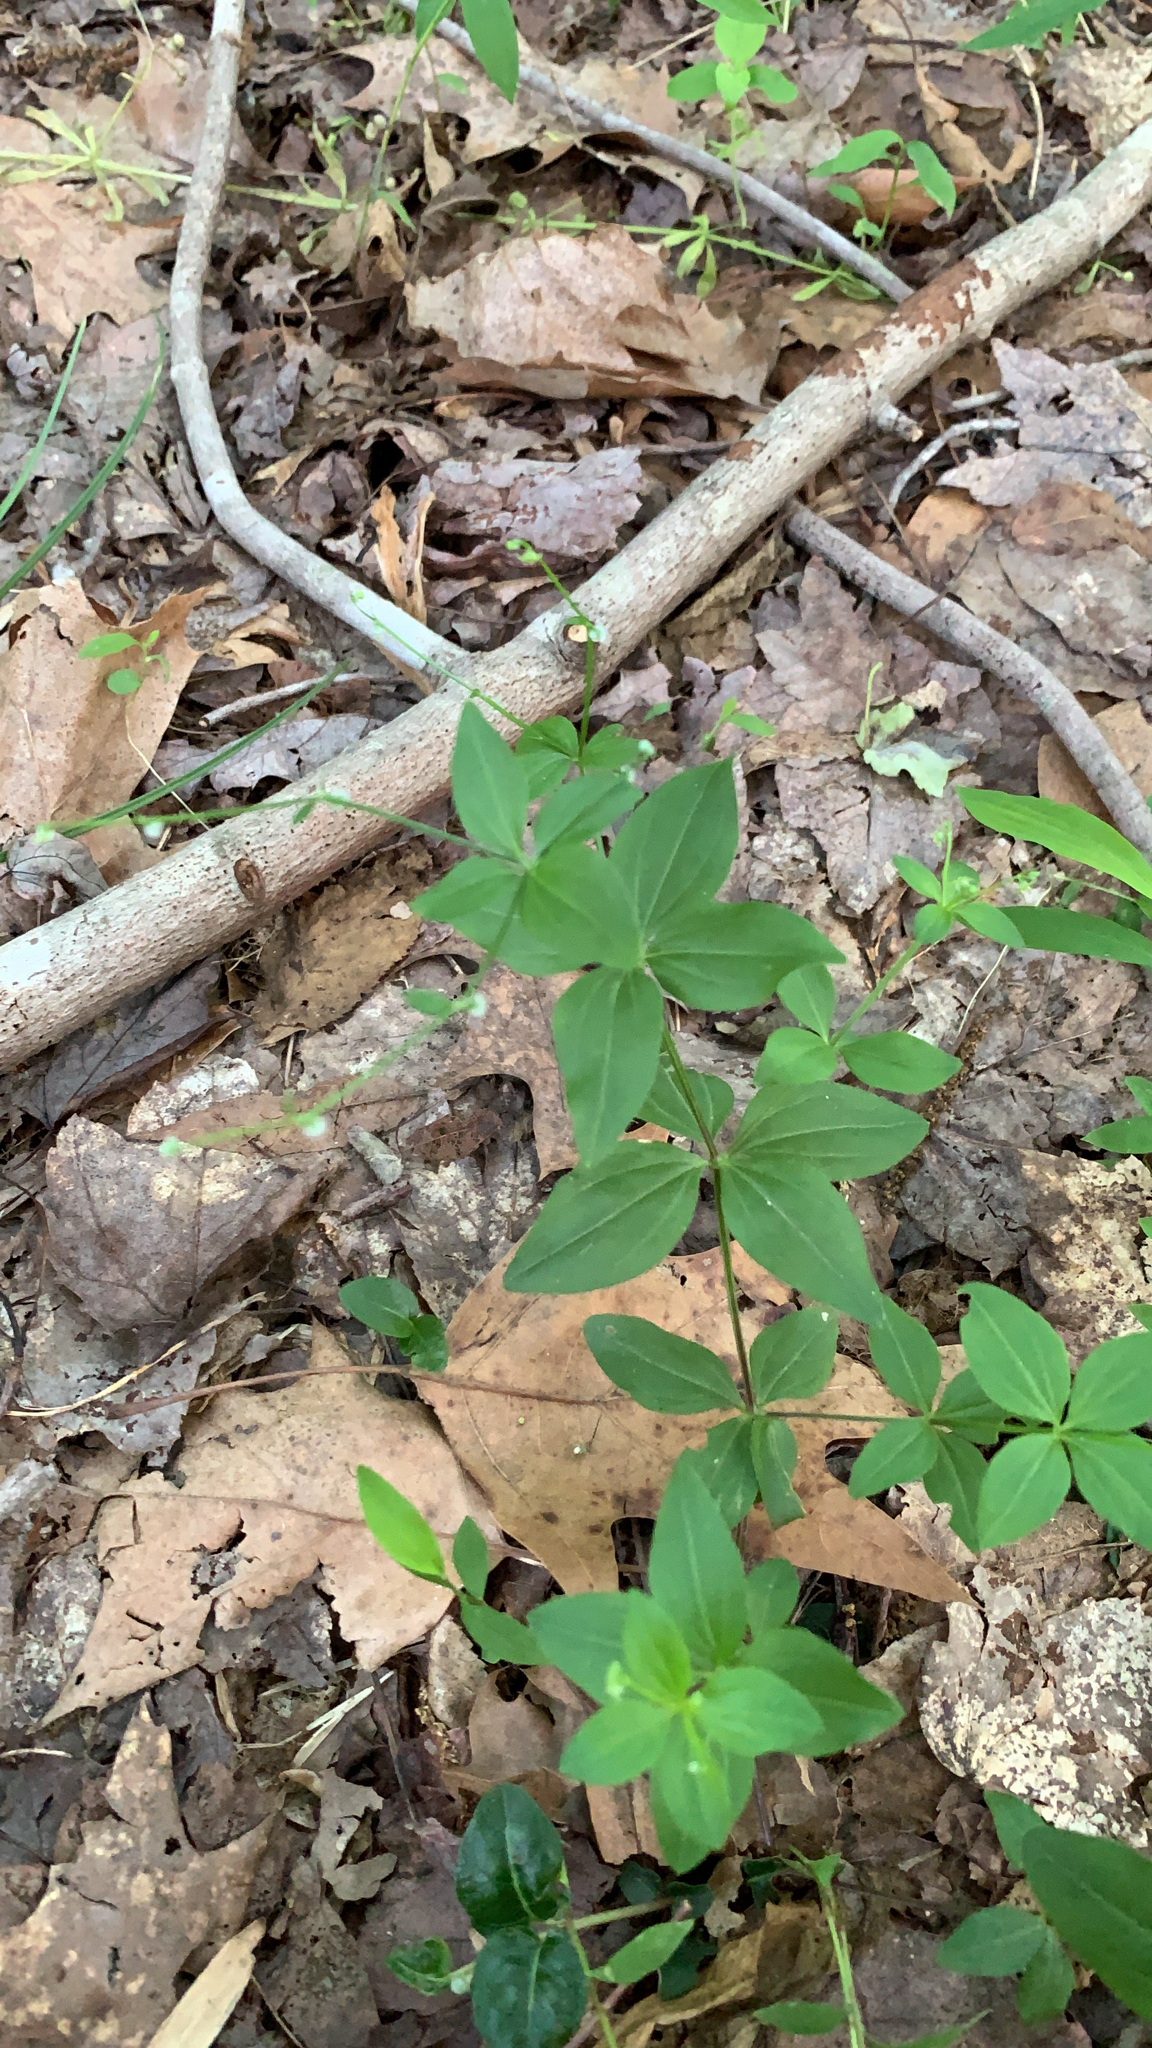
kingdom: Plantae
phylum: Tracheophyta
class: Magnoliopsida
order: Gentianales
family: Rubiaceae
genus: Galium
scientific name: Galium circaezans
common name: Forest bedstraw
